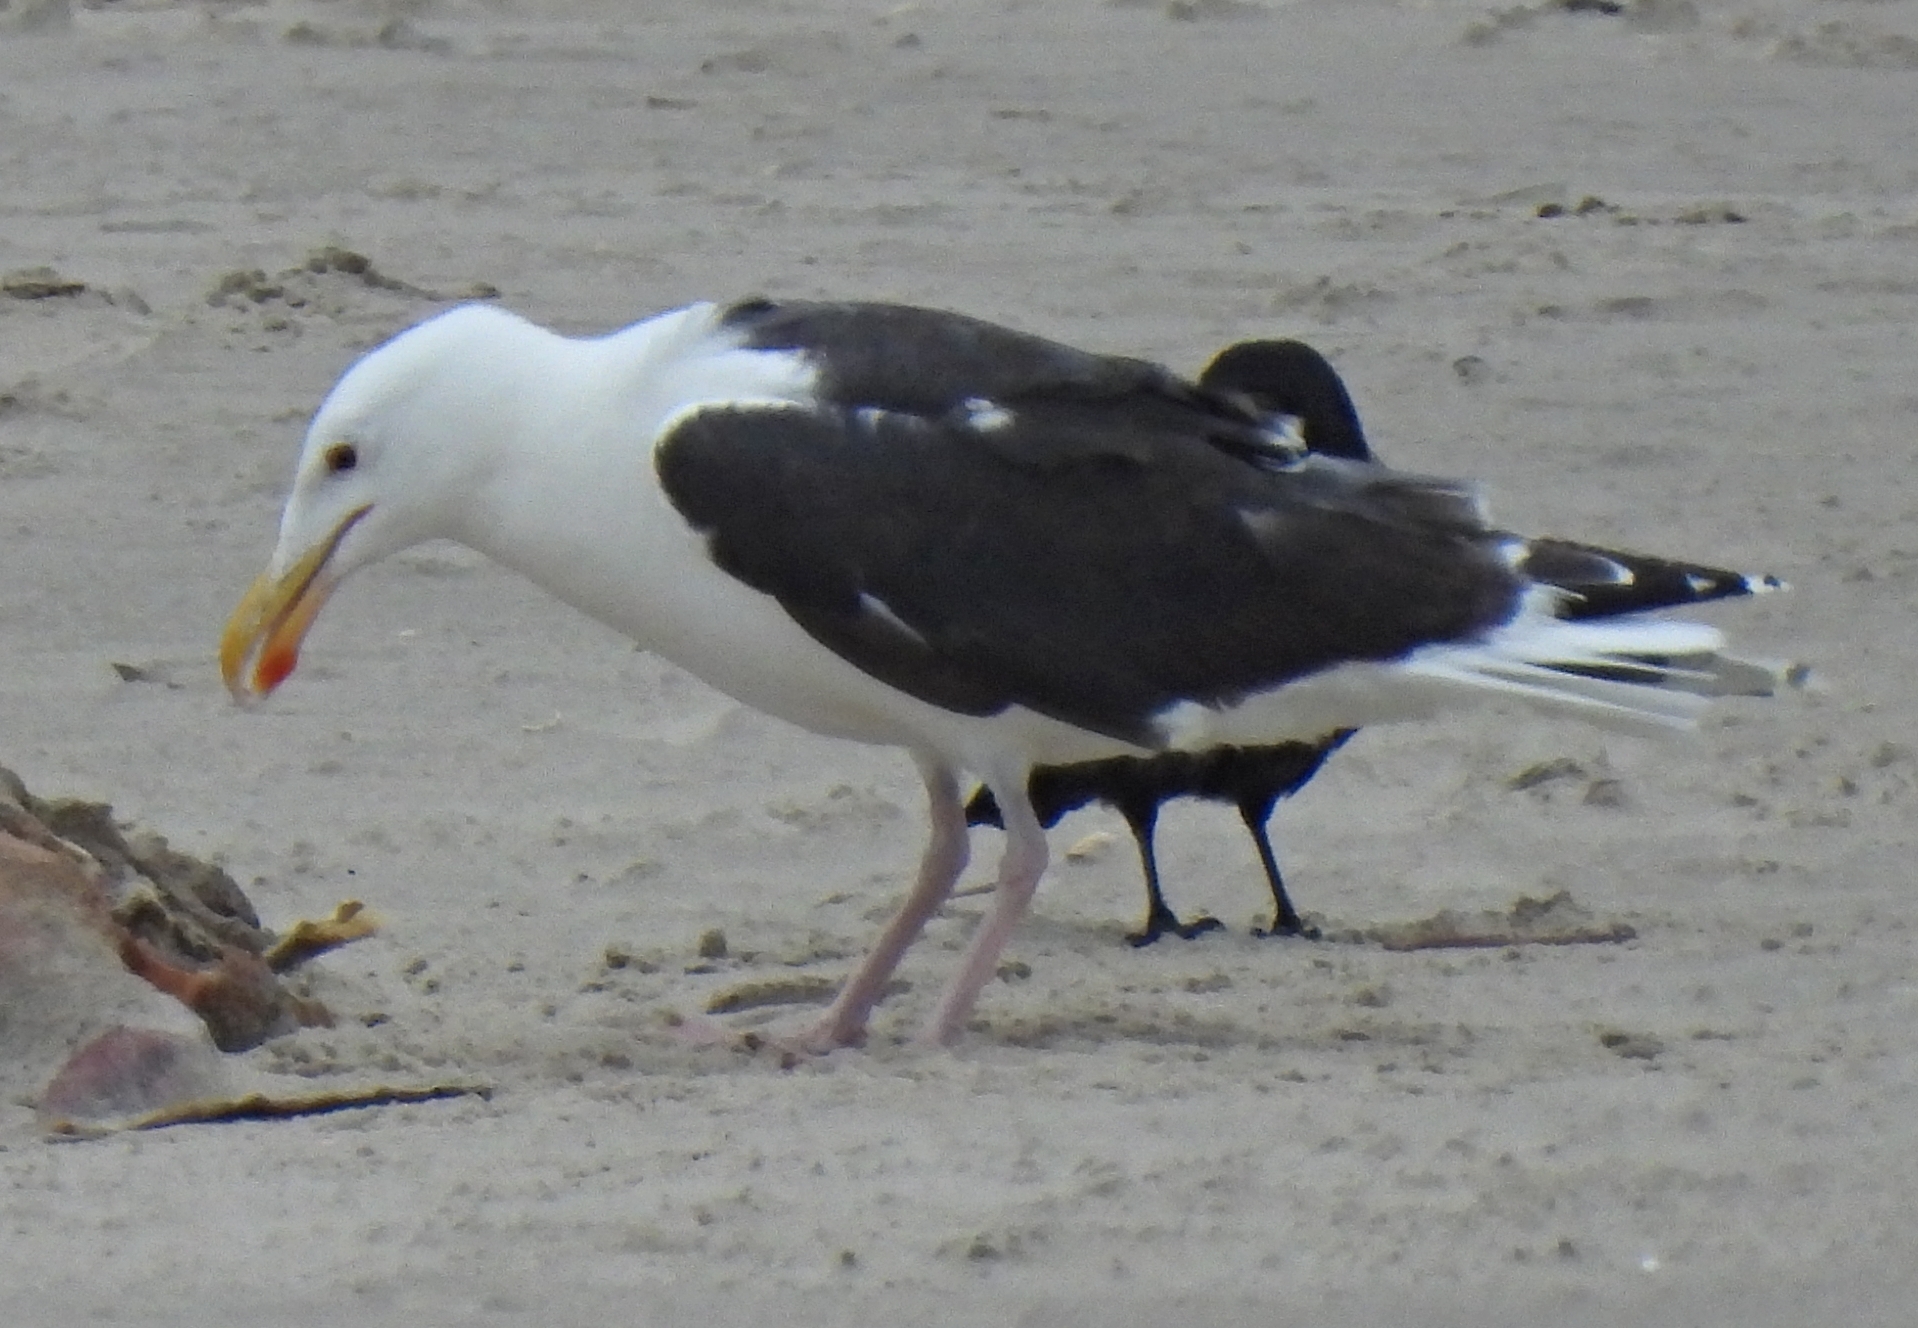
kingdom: Animalia
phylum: Chordata
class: Aves
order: Charadriiformes
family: Laridae
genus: Larus
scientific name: Larus marinus
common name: Great black-backed gull
